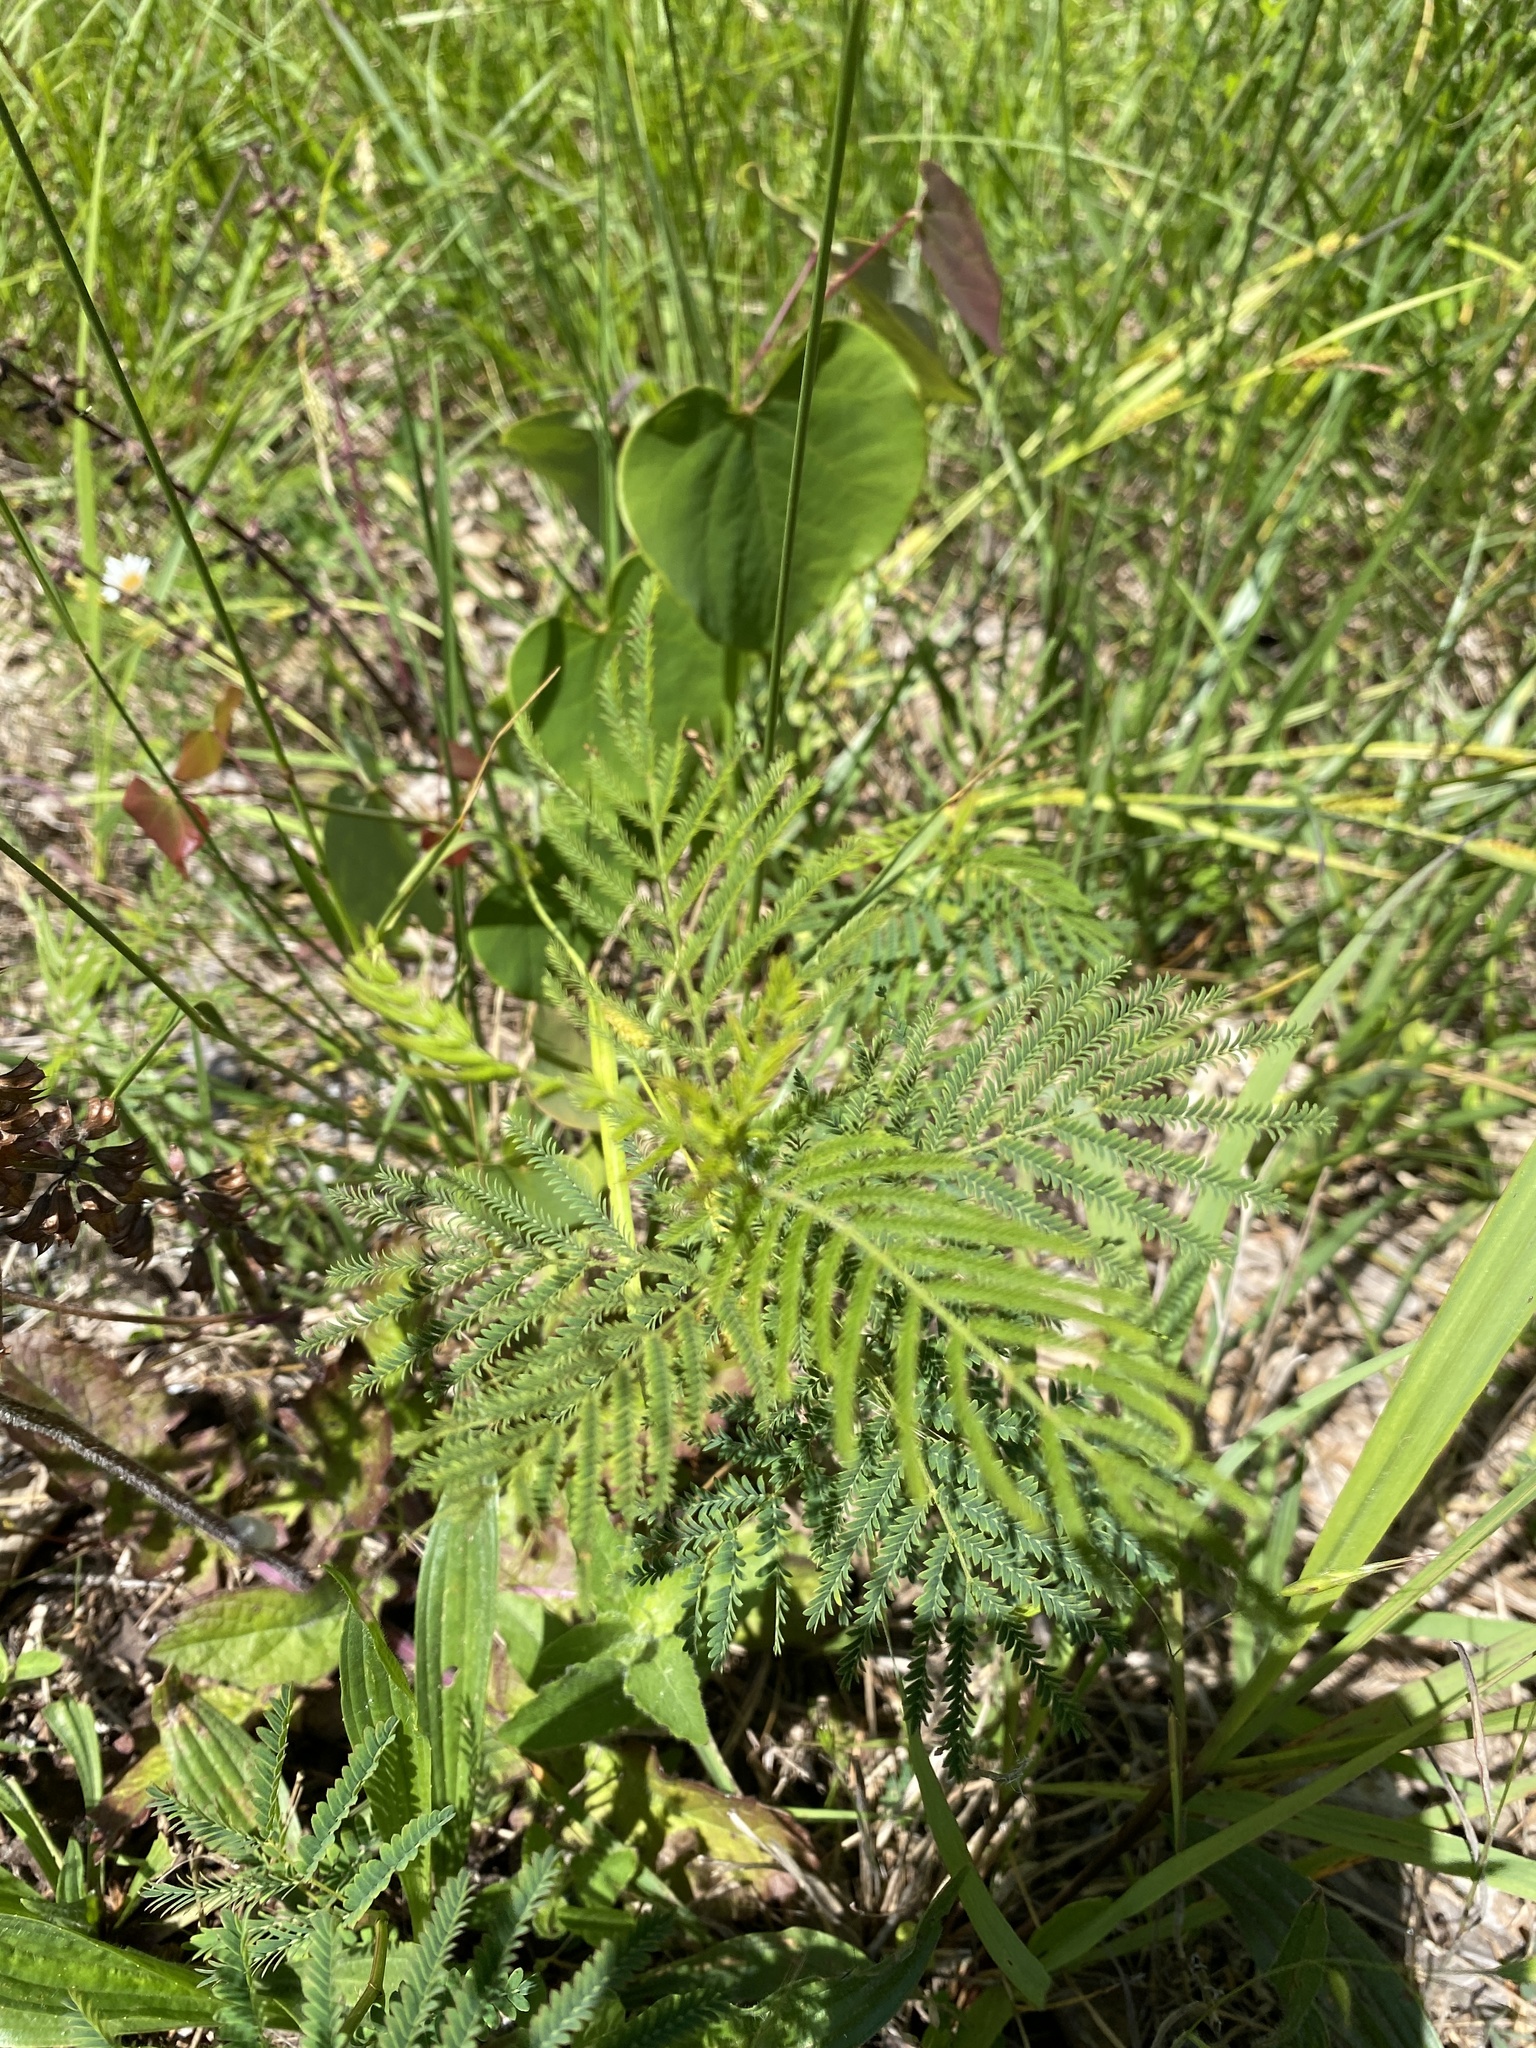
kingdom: Plantae
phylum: Tracheophyta
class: Magnoliopsida
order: Fabales
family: Fabaceae
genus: Desmanthus
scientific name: Desmanthus illinoensis
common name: Illinois bundle-flower
